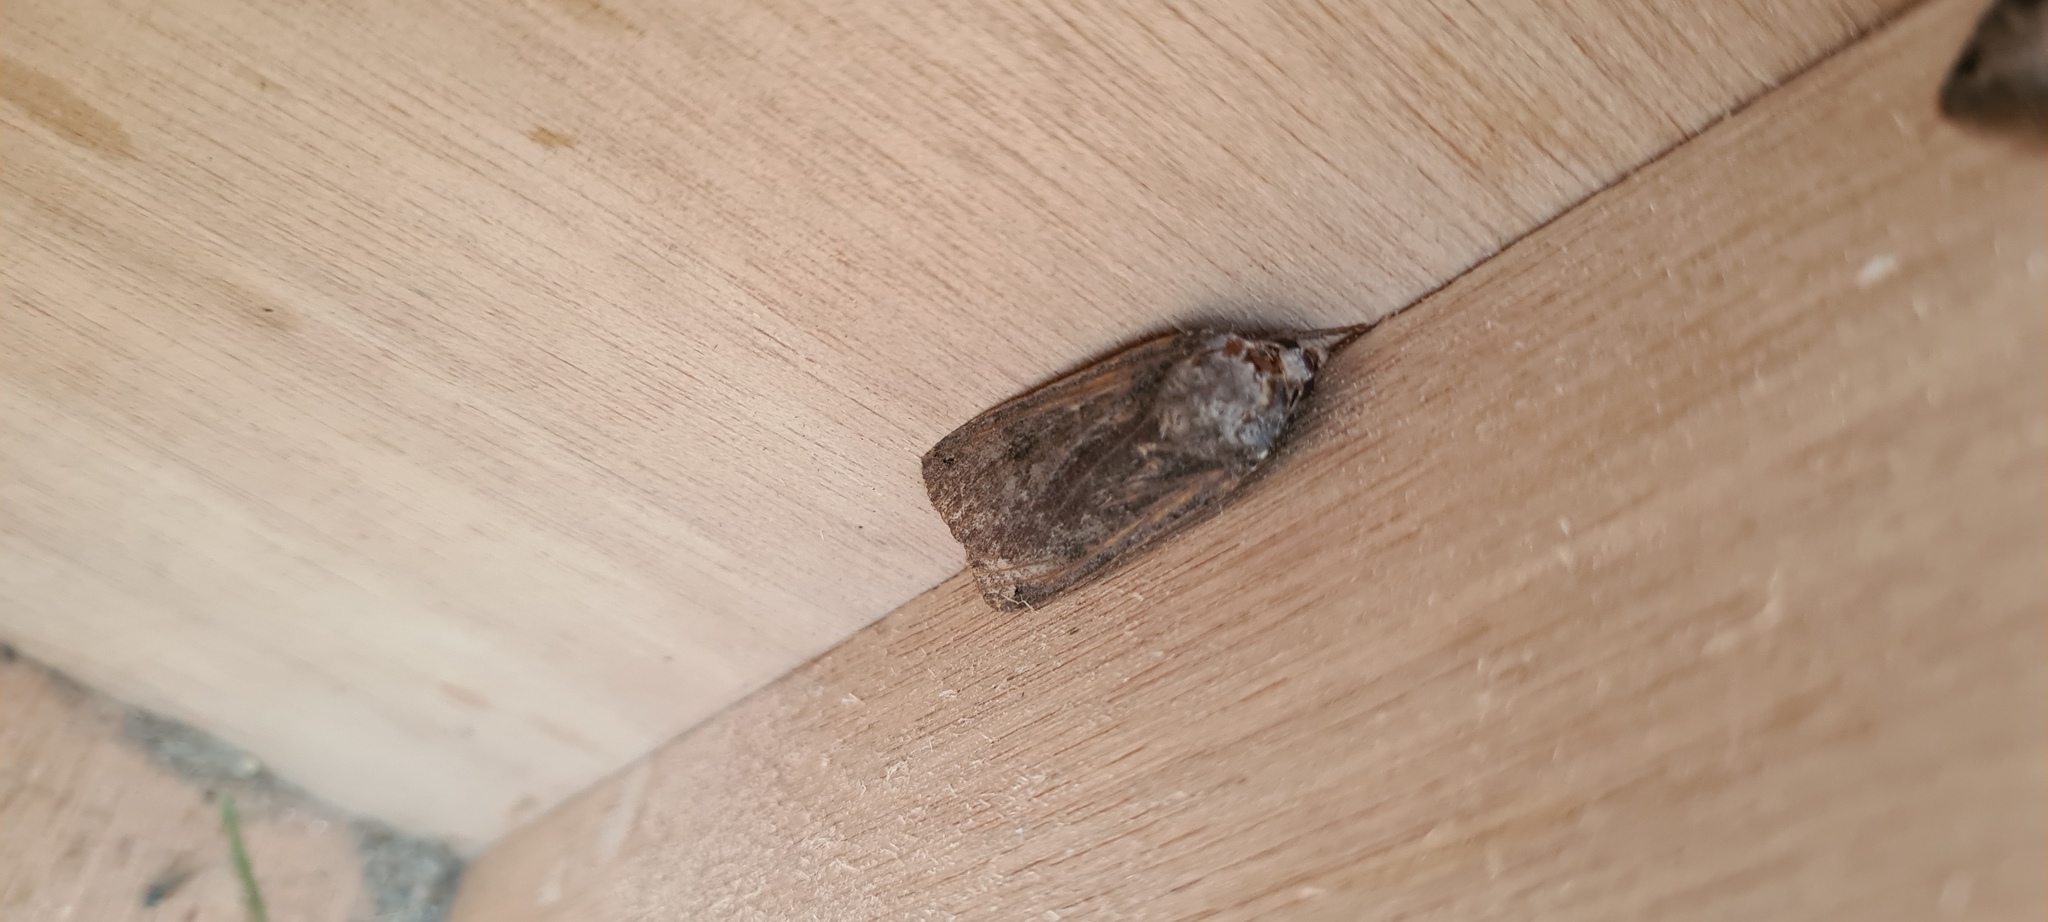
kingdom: Animalia
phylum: Arthropoda
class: Insecta
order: Lepidoptera
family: Noctuidae
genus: Noctua
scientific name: Noctua pronuba
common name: Large yellow underwing
